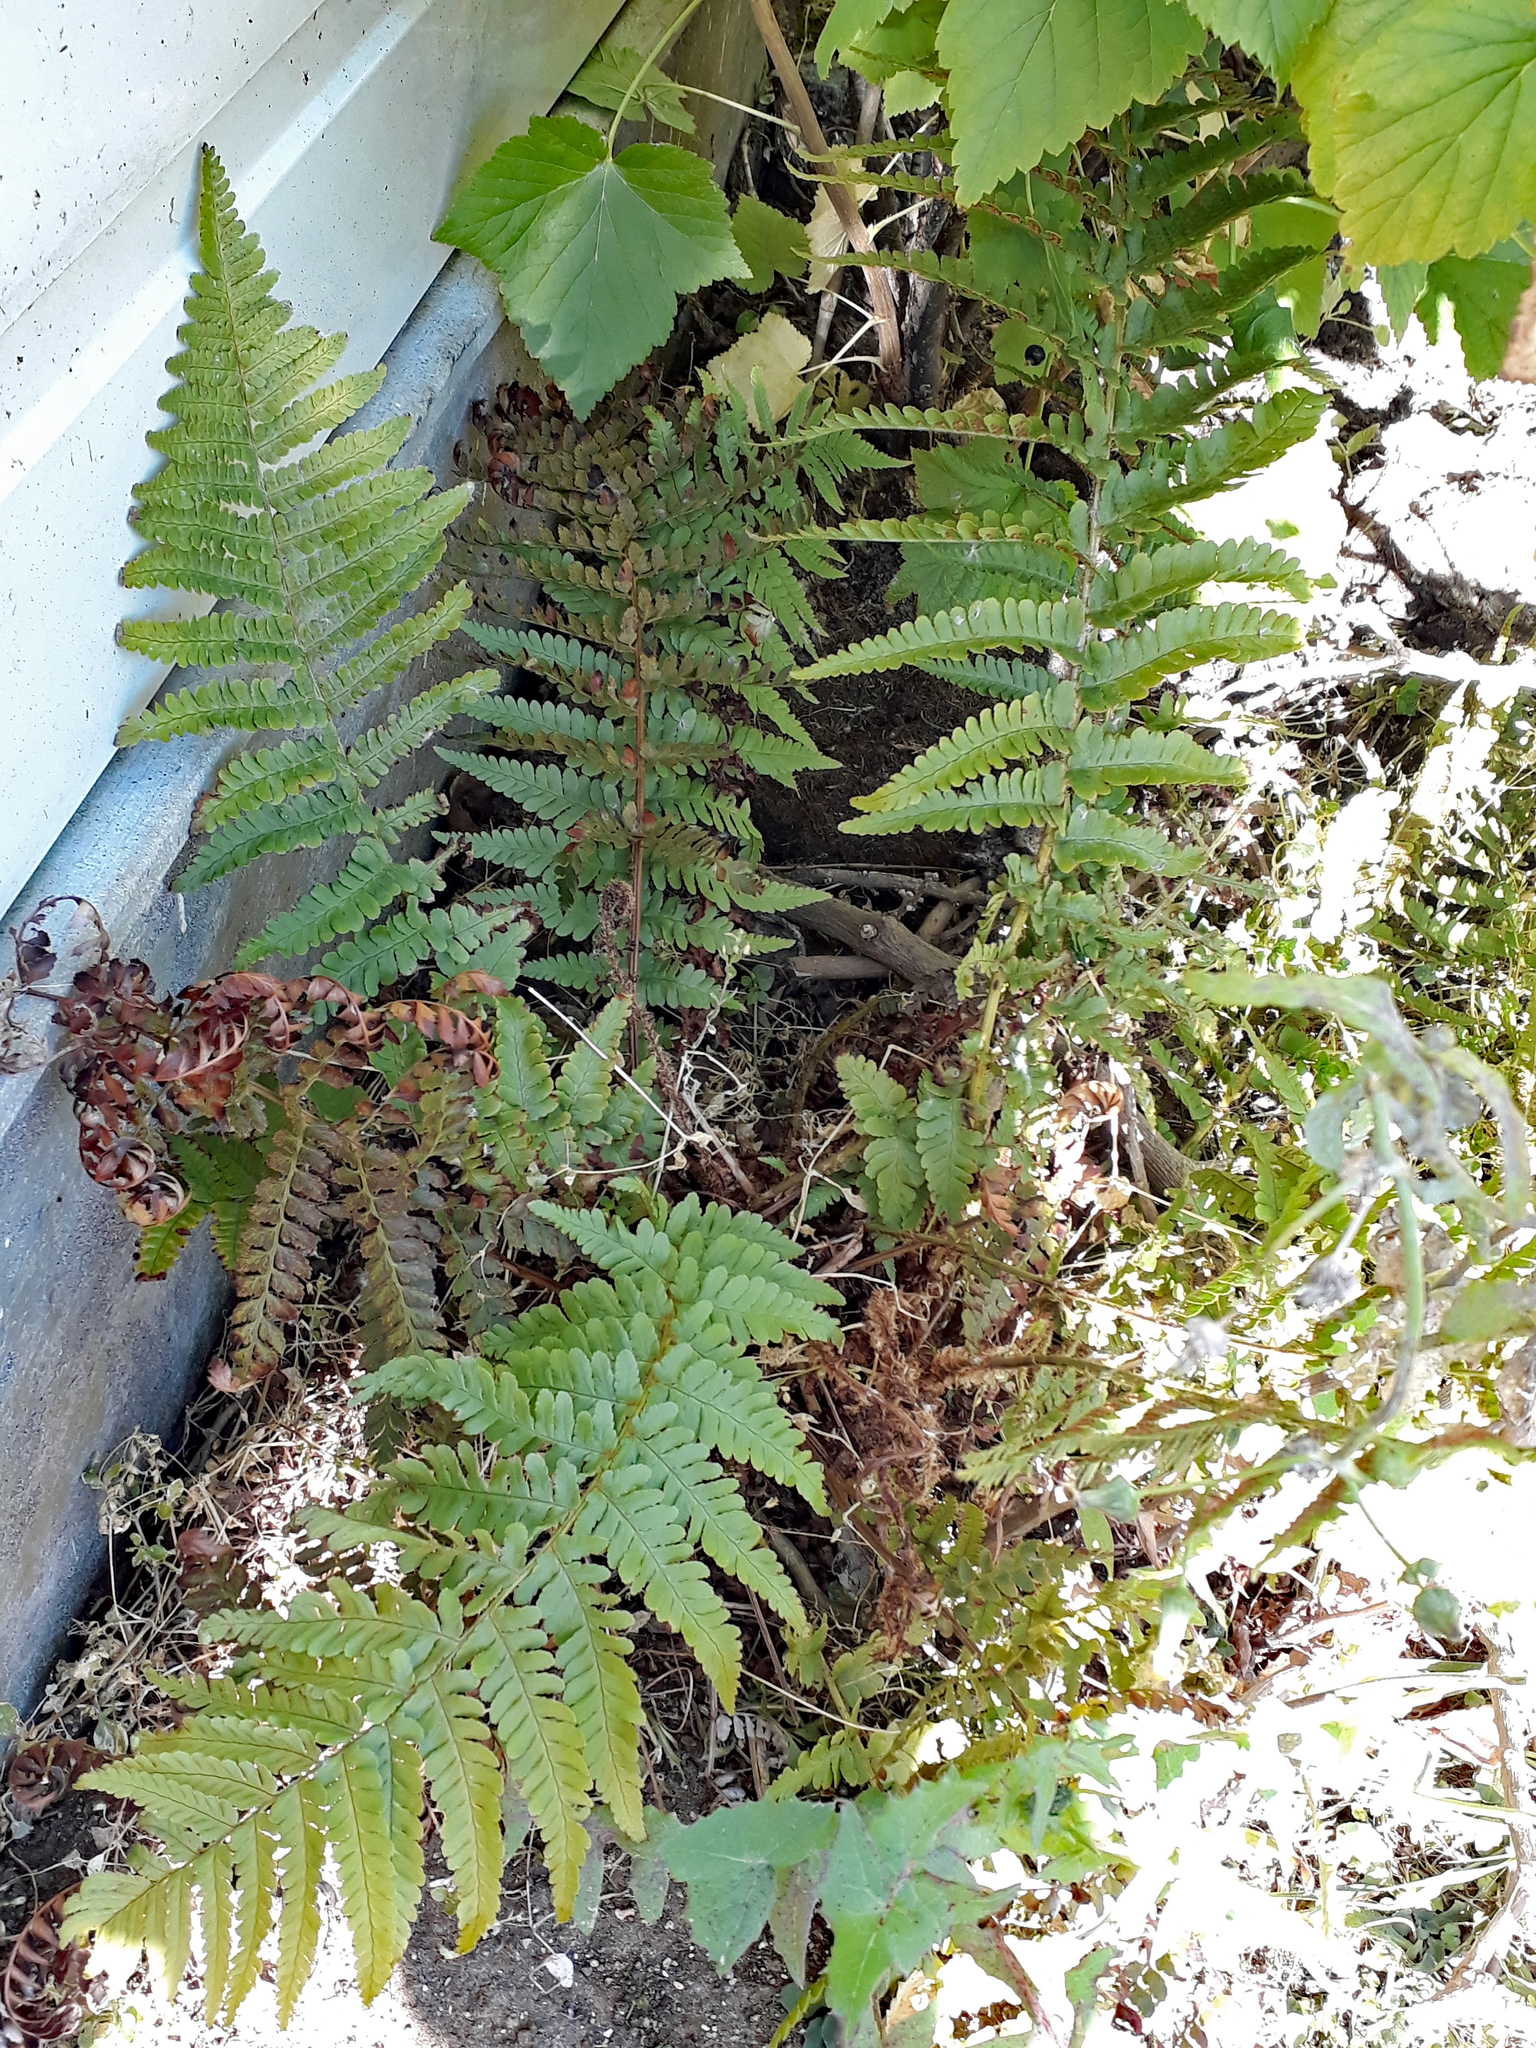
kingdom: Plantae
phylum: Tracheophyta
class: Polypodiopsida
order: Polypodiales
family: Dryopteridaceae
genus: Dryopteris
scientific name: Dryopteris filix-mas
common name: Male fern
